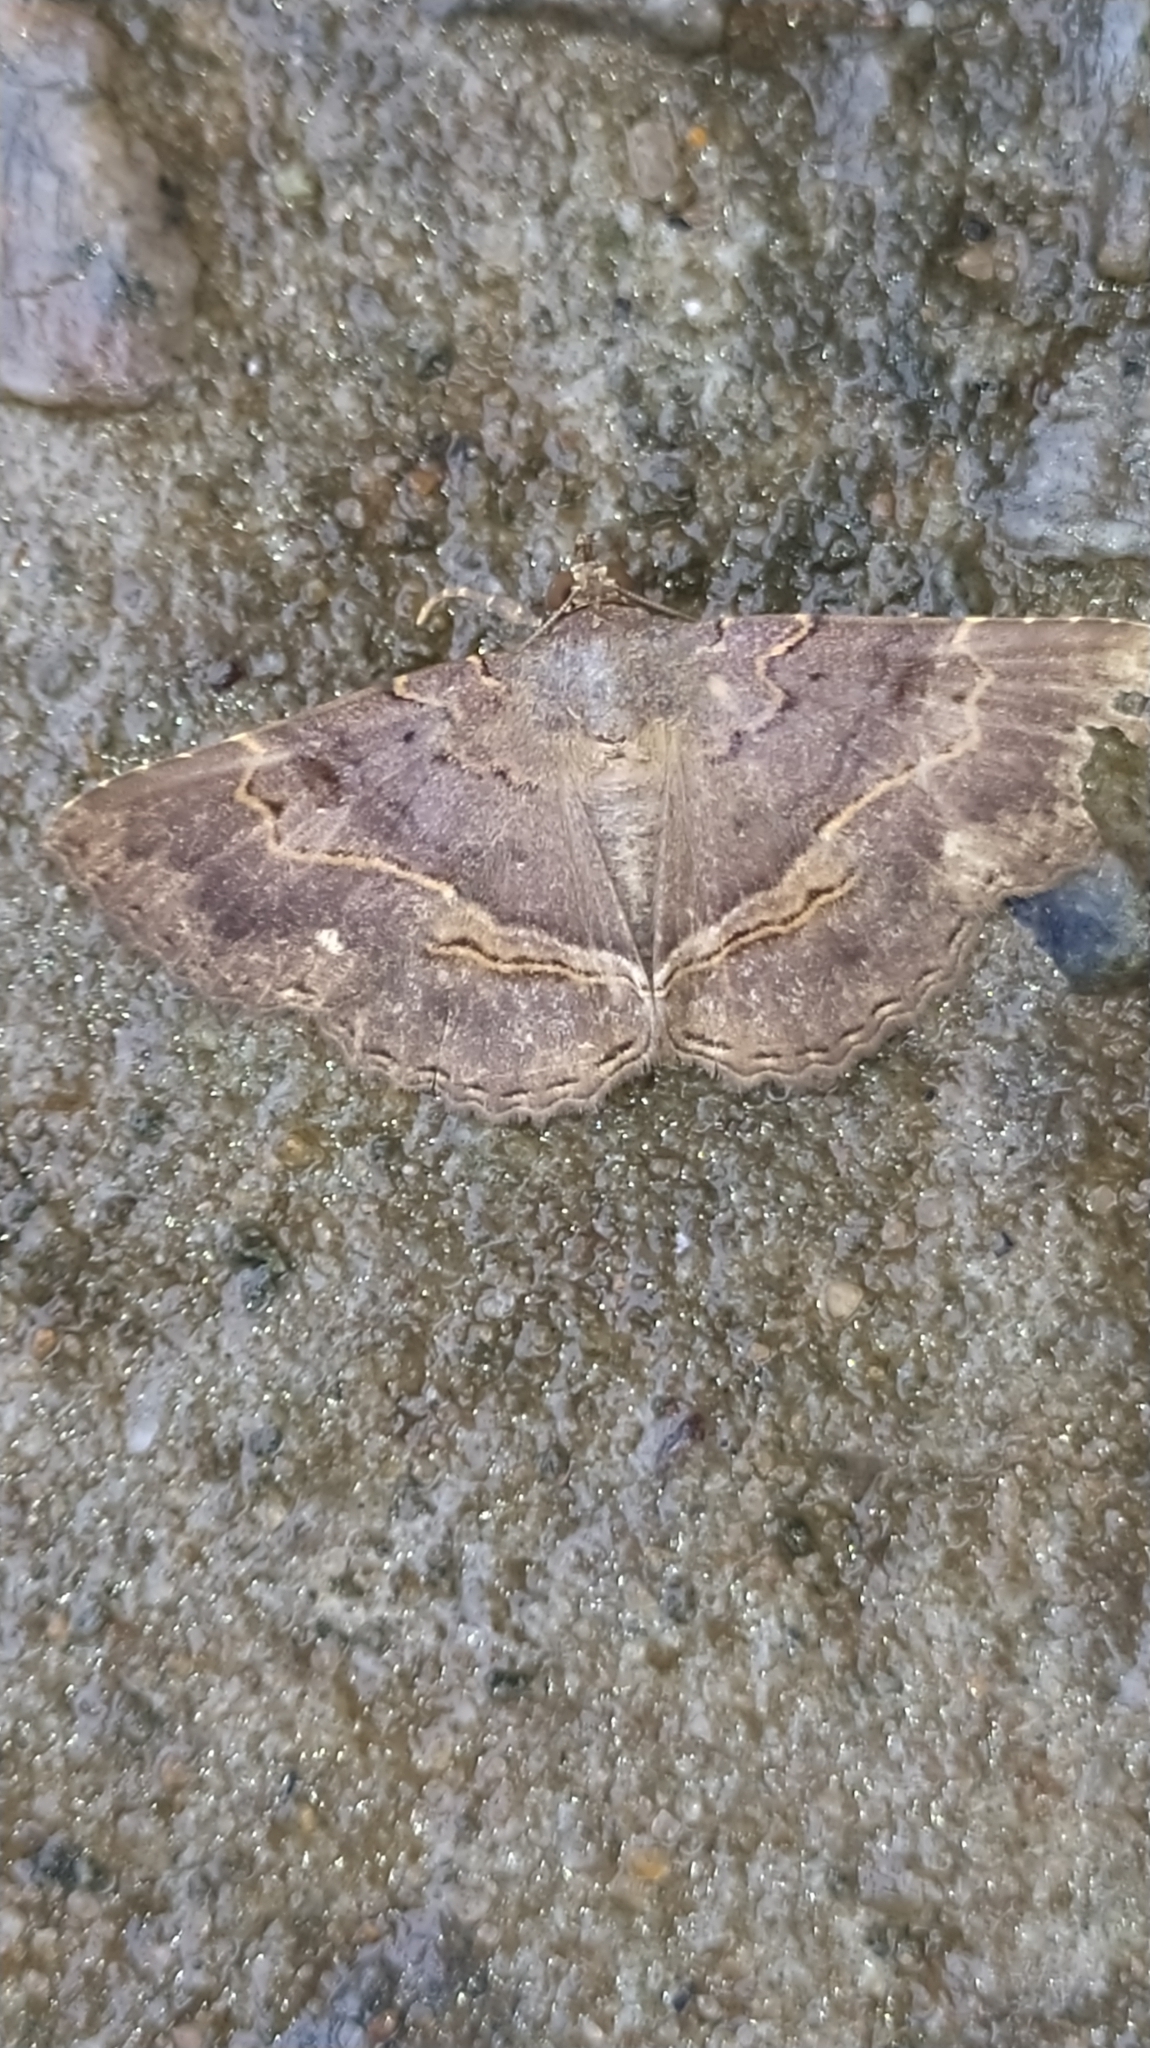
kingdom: Animalia
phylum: Arthropoda
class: Insecta
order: Lepidoptera
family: Erebidae
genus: Phaeoblemma
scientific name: Phaeoblemma albipuncta
